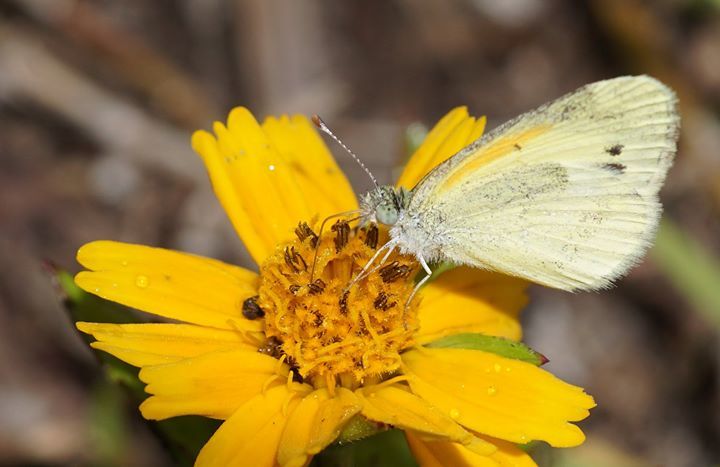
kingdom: Animalia
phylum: Arthropoda
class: Insecta
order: Lepidoptera
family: Pieridae
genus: Nathalis
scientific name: Nathalis iole
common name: Dainty sulphur
